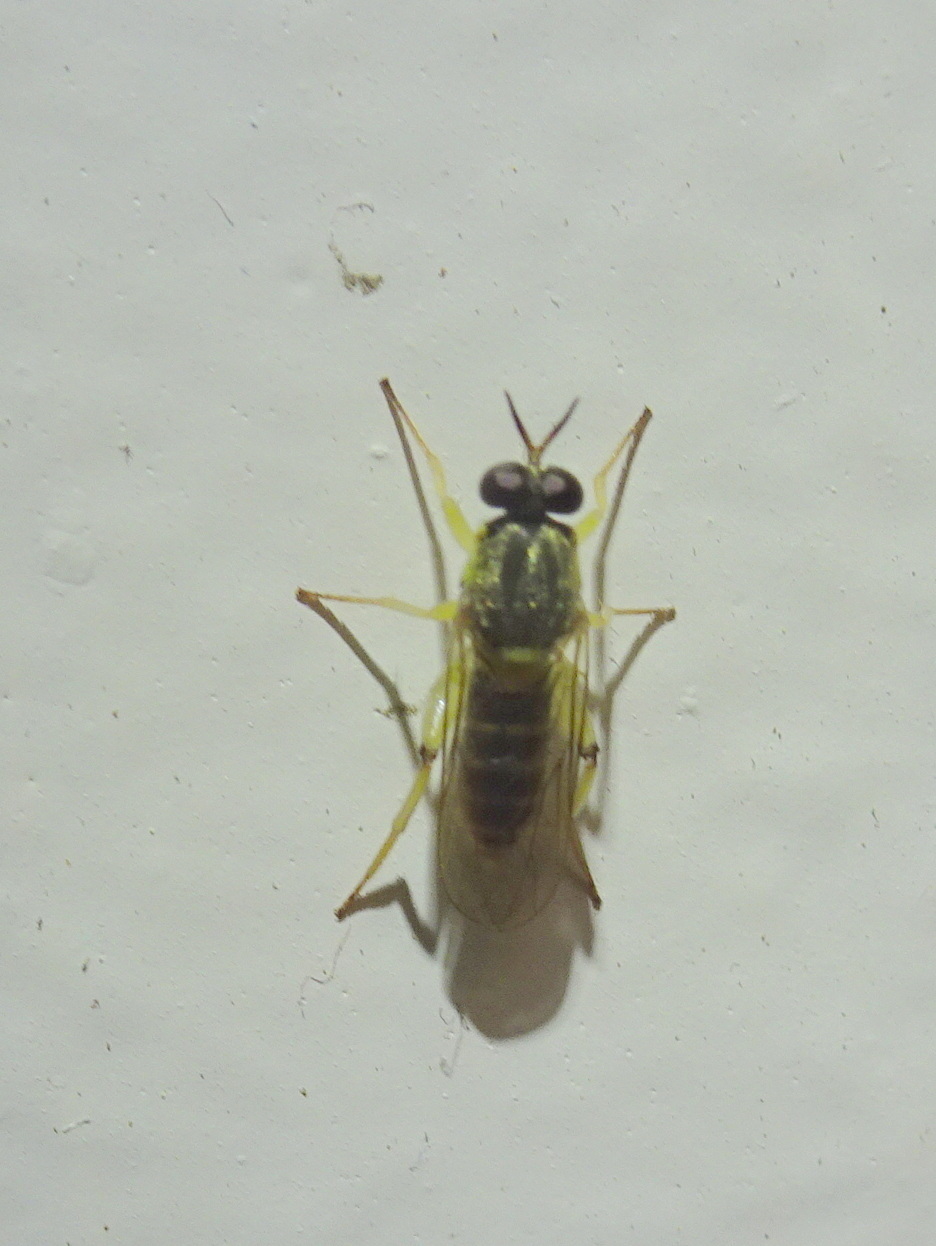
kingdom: Animalia
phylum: Arthropoda
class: Insecta
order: Diptera
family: Xylomyidae
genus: Solva
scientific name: Solva pallipes
